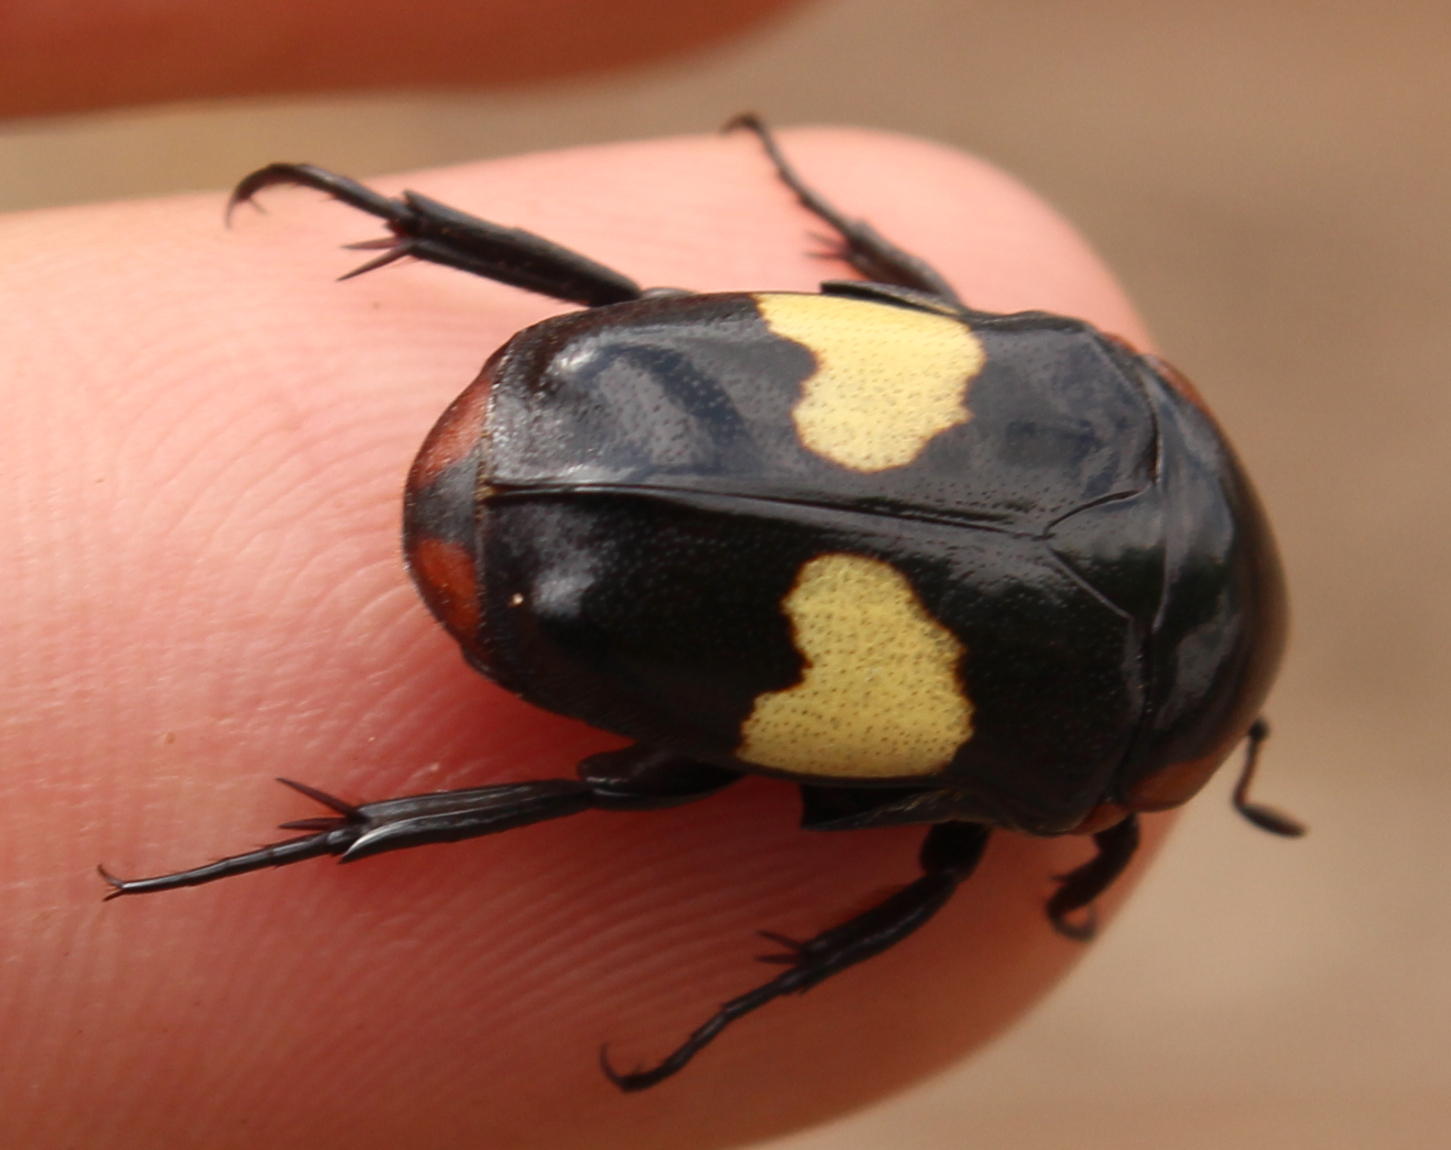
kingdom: Animalia
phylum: Arthropoda
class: Insecta
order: Coleoptera
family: Scarabaeidae
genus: Pedinorrhina
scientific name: Pedinorrhina
